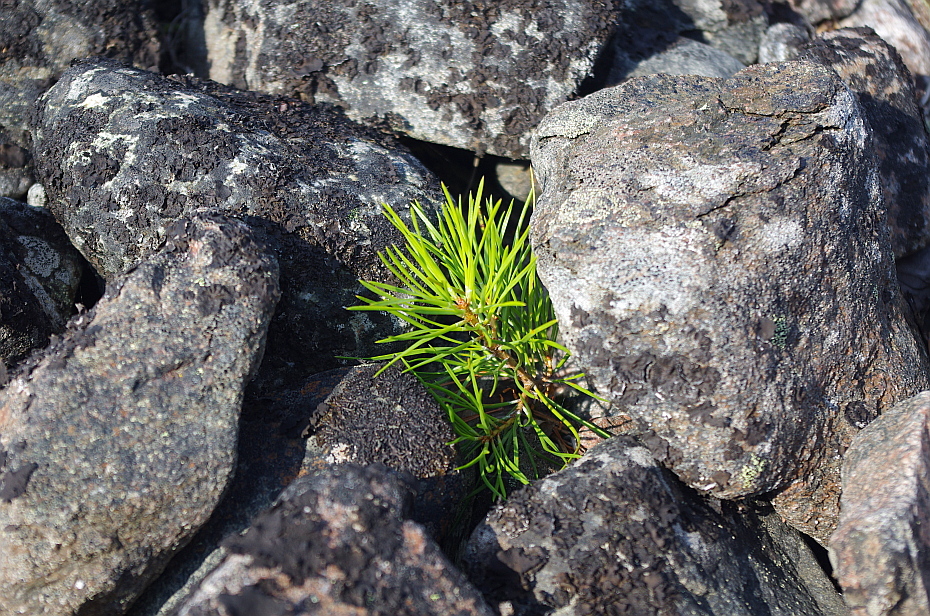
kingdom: Plantae
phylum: Tracheophyta
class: Pinopsida
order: Pinales
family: Pinaceae
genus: Pinus
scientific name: Pinus sylvestris
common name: Scots pine
